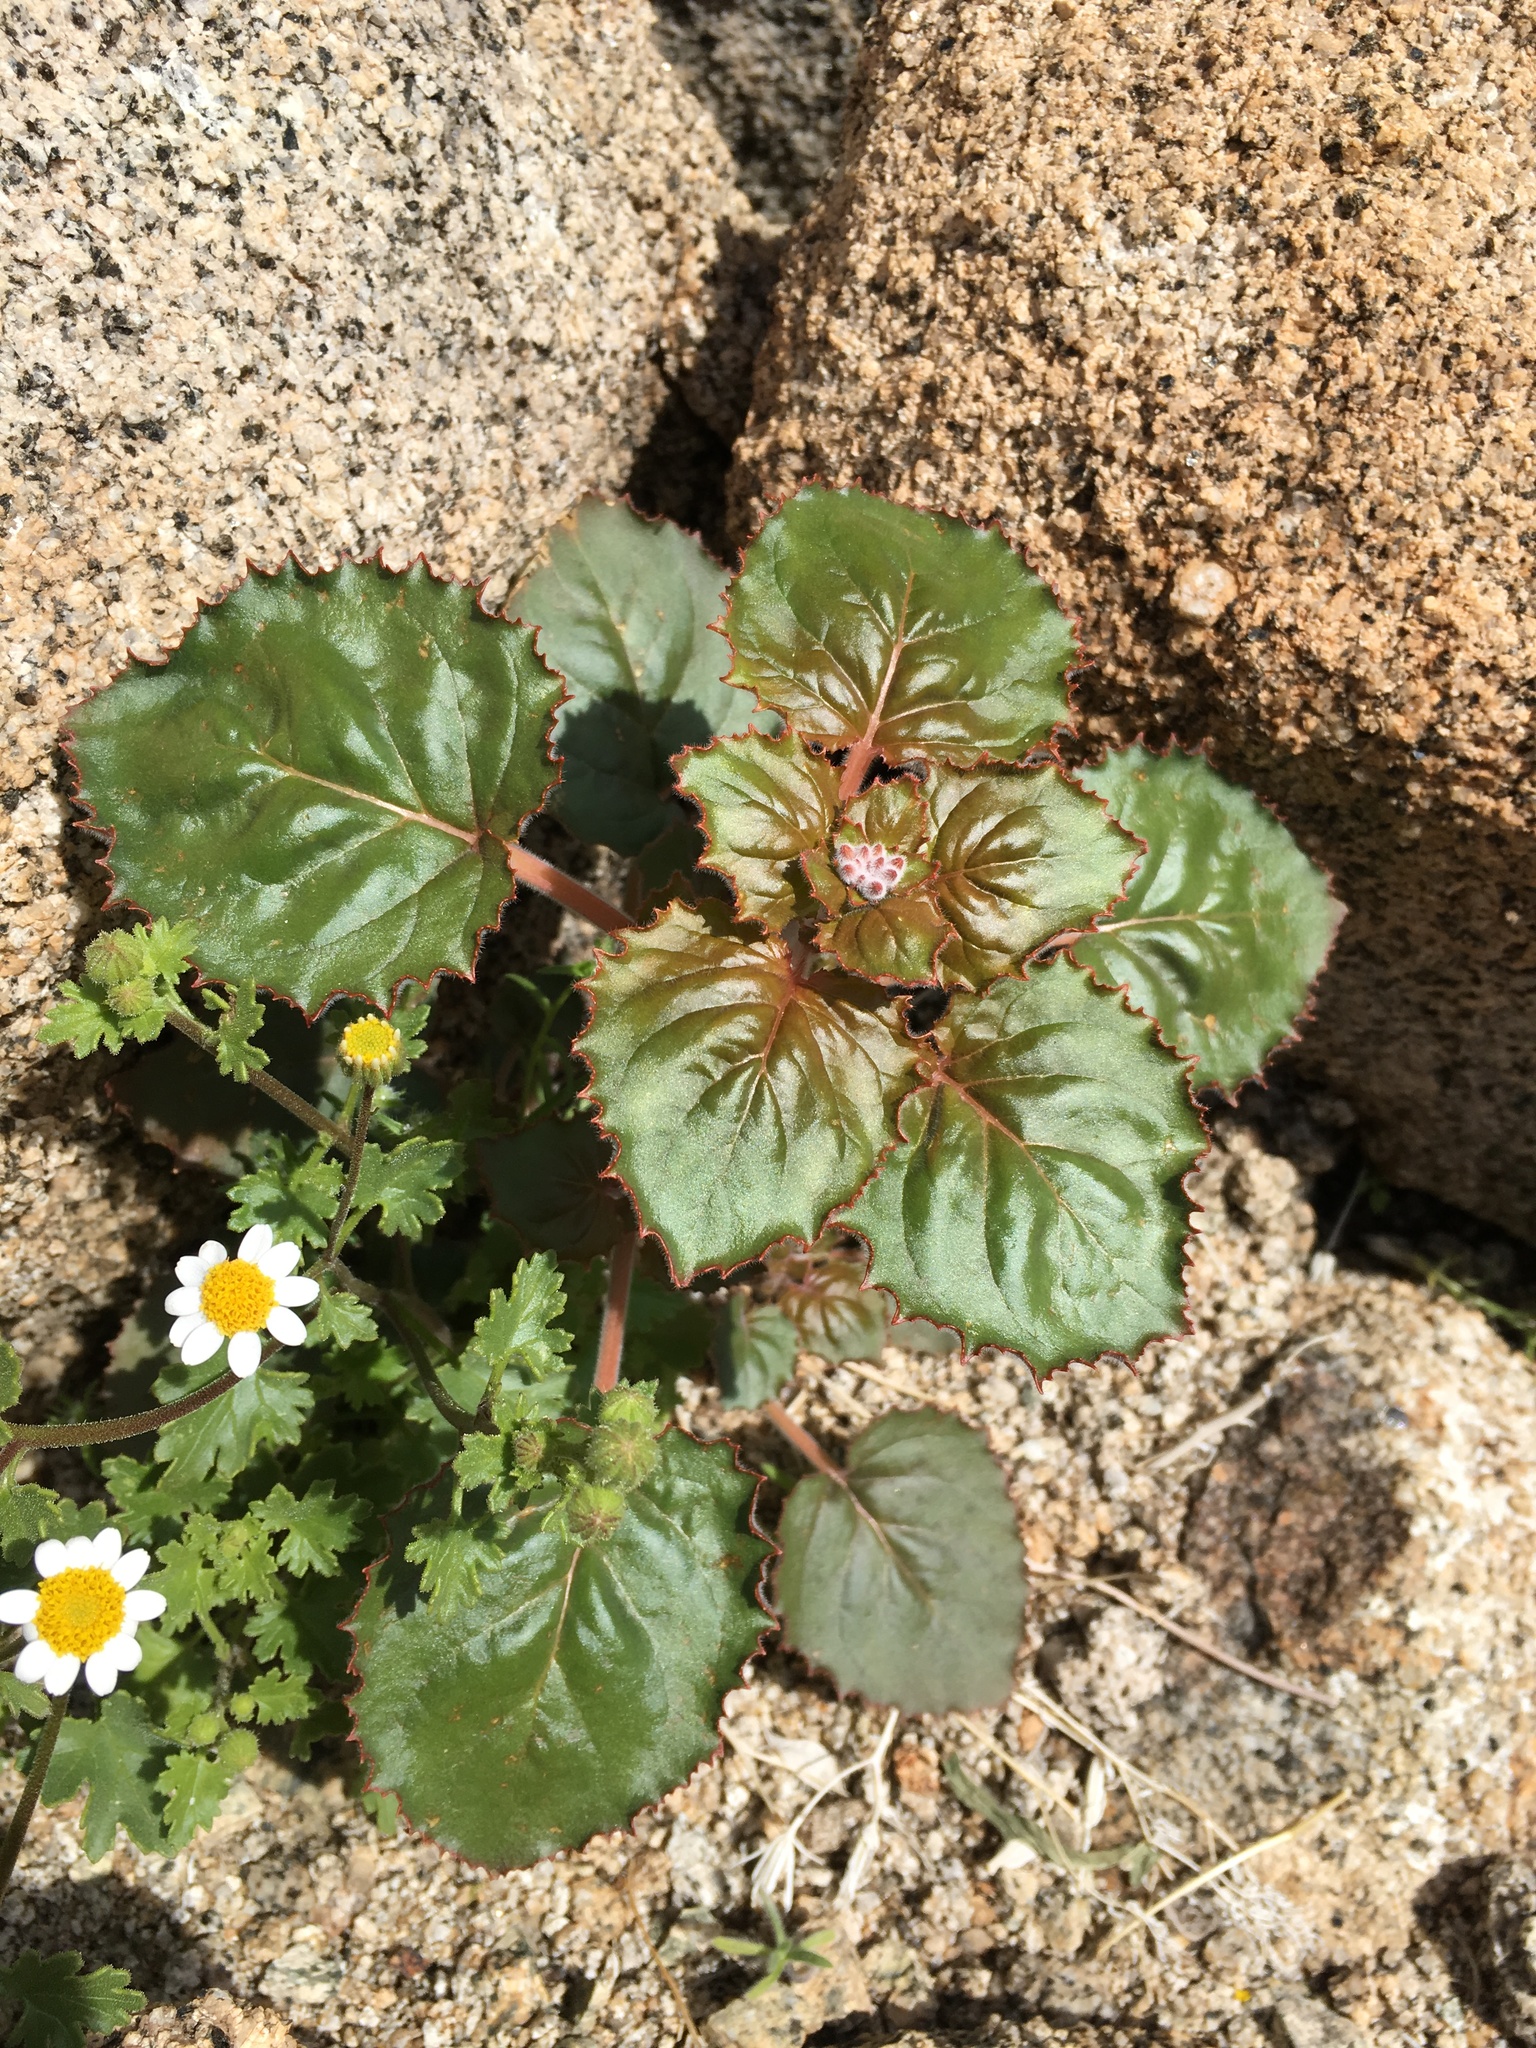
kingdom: Plantae
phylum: Tracheophyta
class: Magnoliopsida
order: Myrtales
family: Onagraceae
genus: Chylismia
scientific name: Chylismia cardiophylla
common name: Heartleaf suncup
